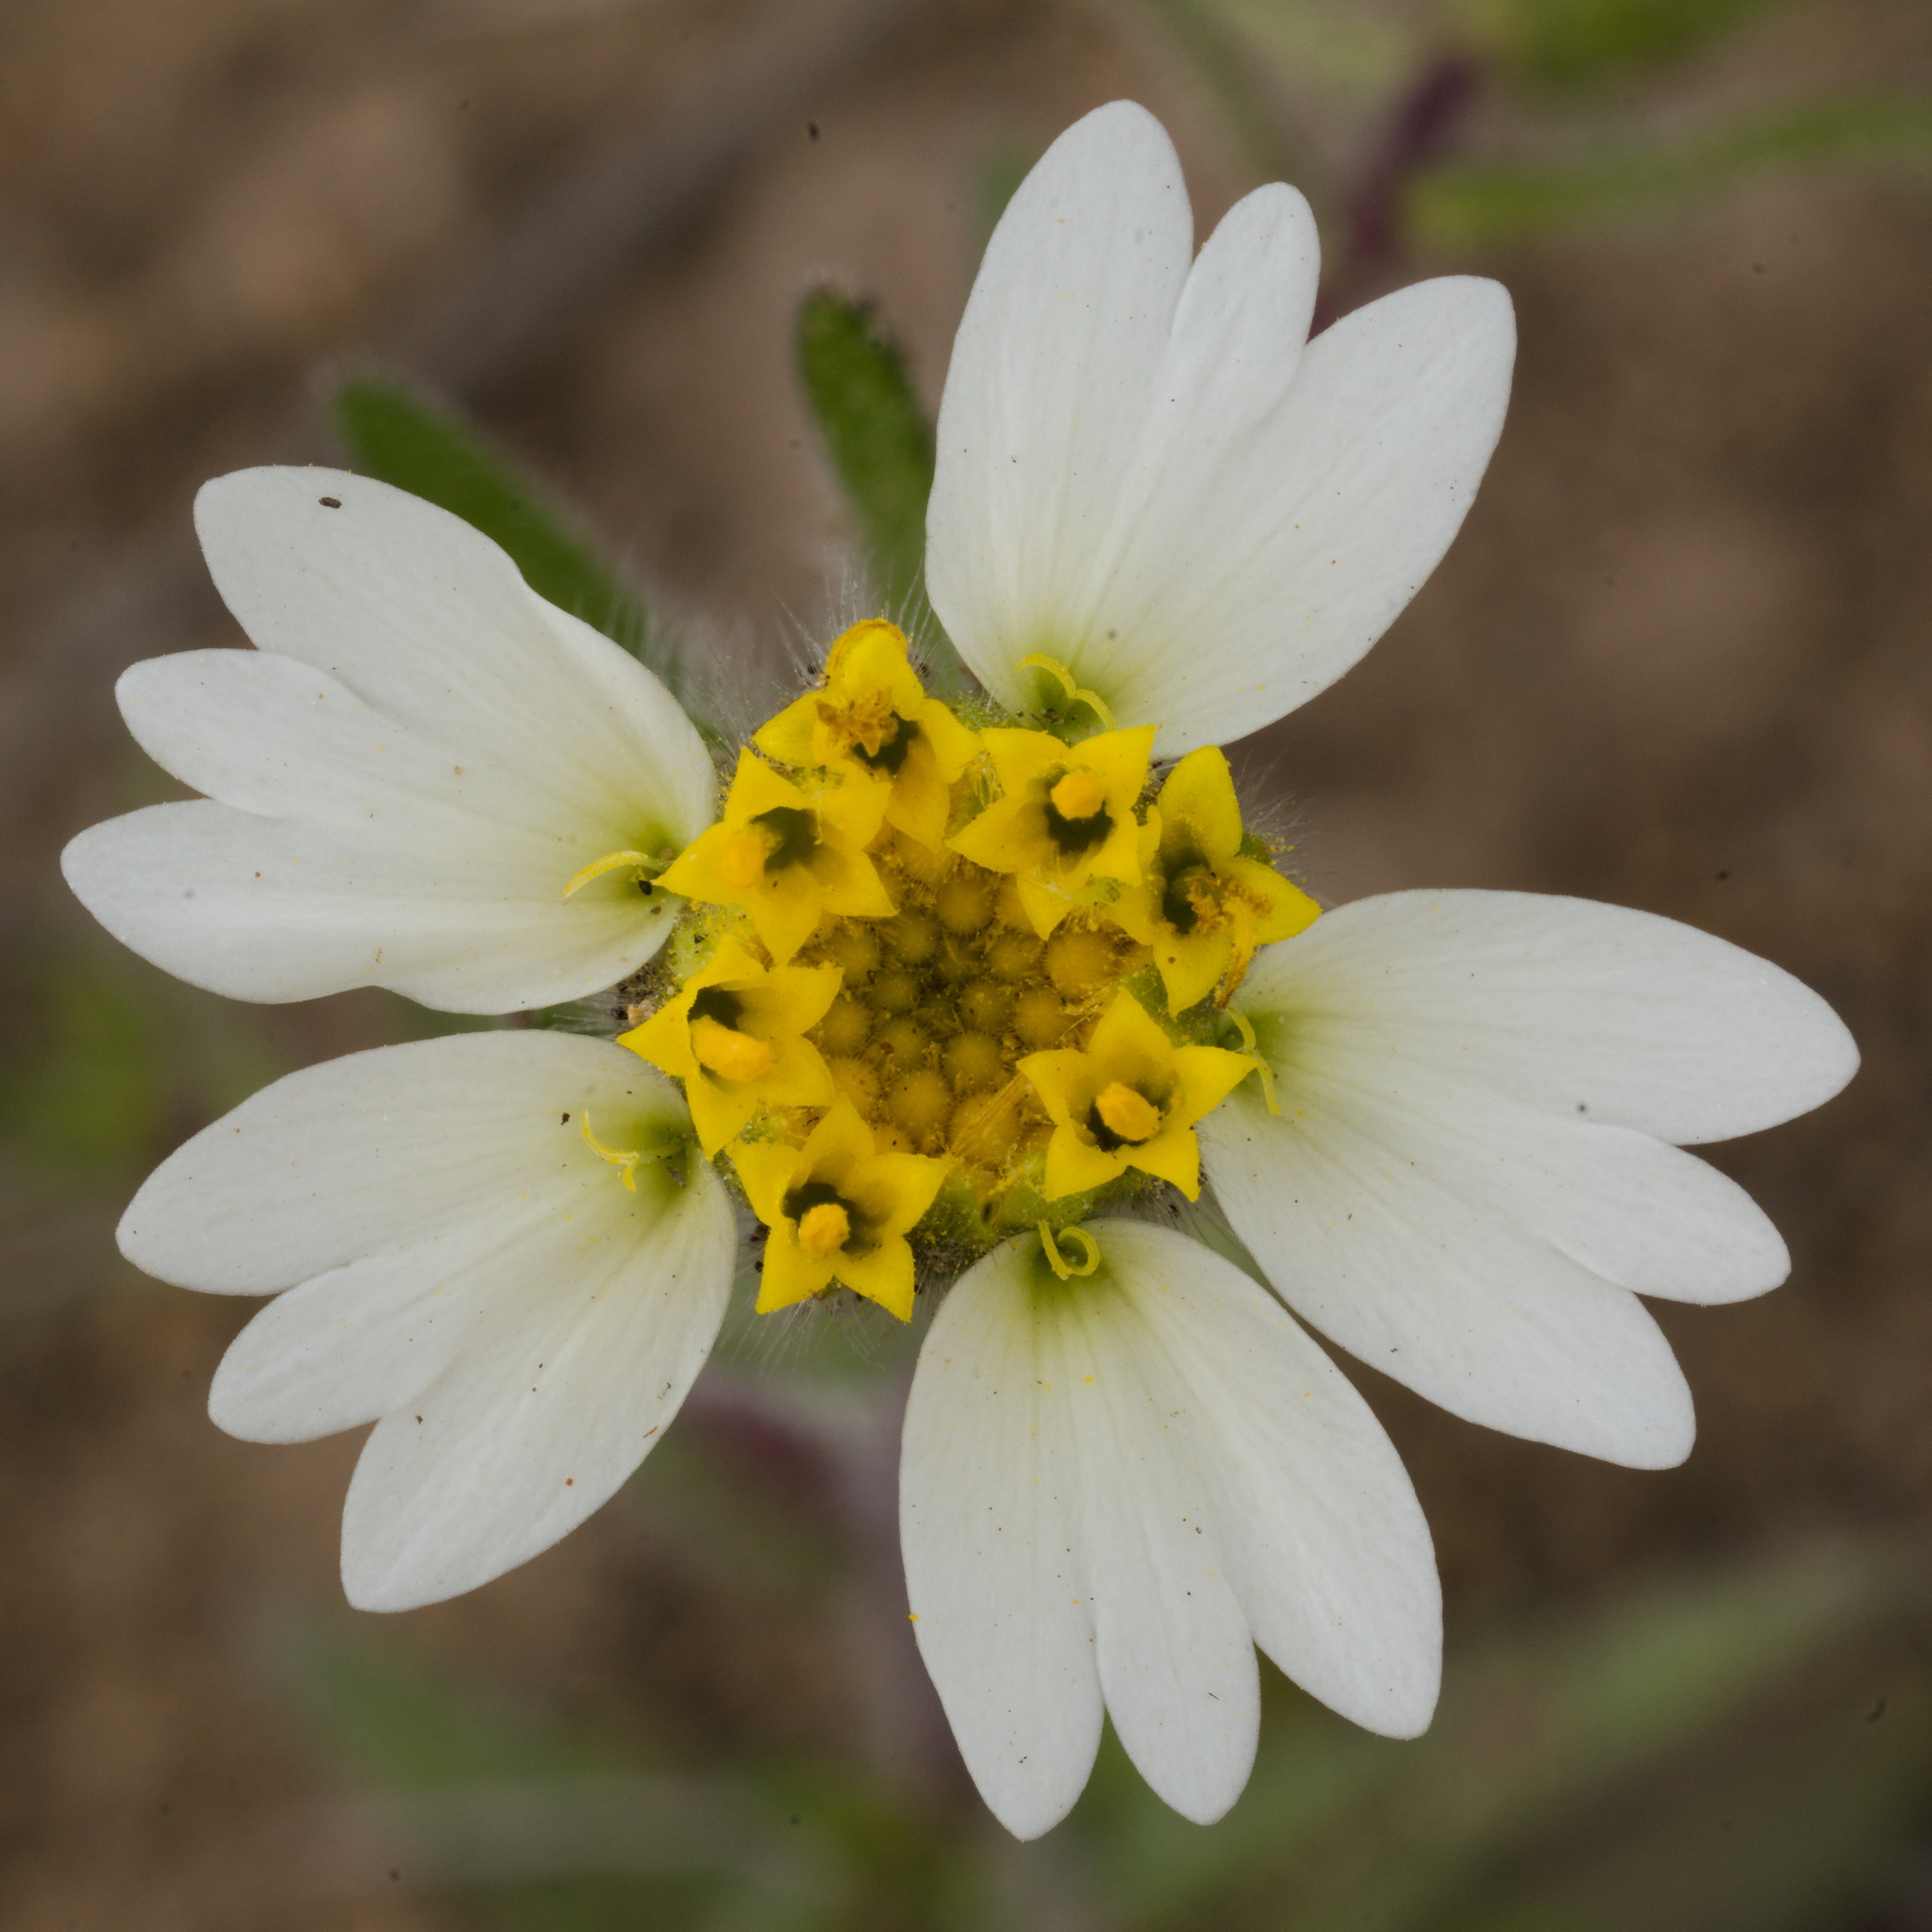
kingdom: Plantae
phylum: Tracheophyta
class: Magnoliopsida
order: Asterales
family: Asteraceae
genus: Layia
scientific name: Layia glandulosa
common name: White layia
